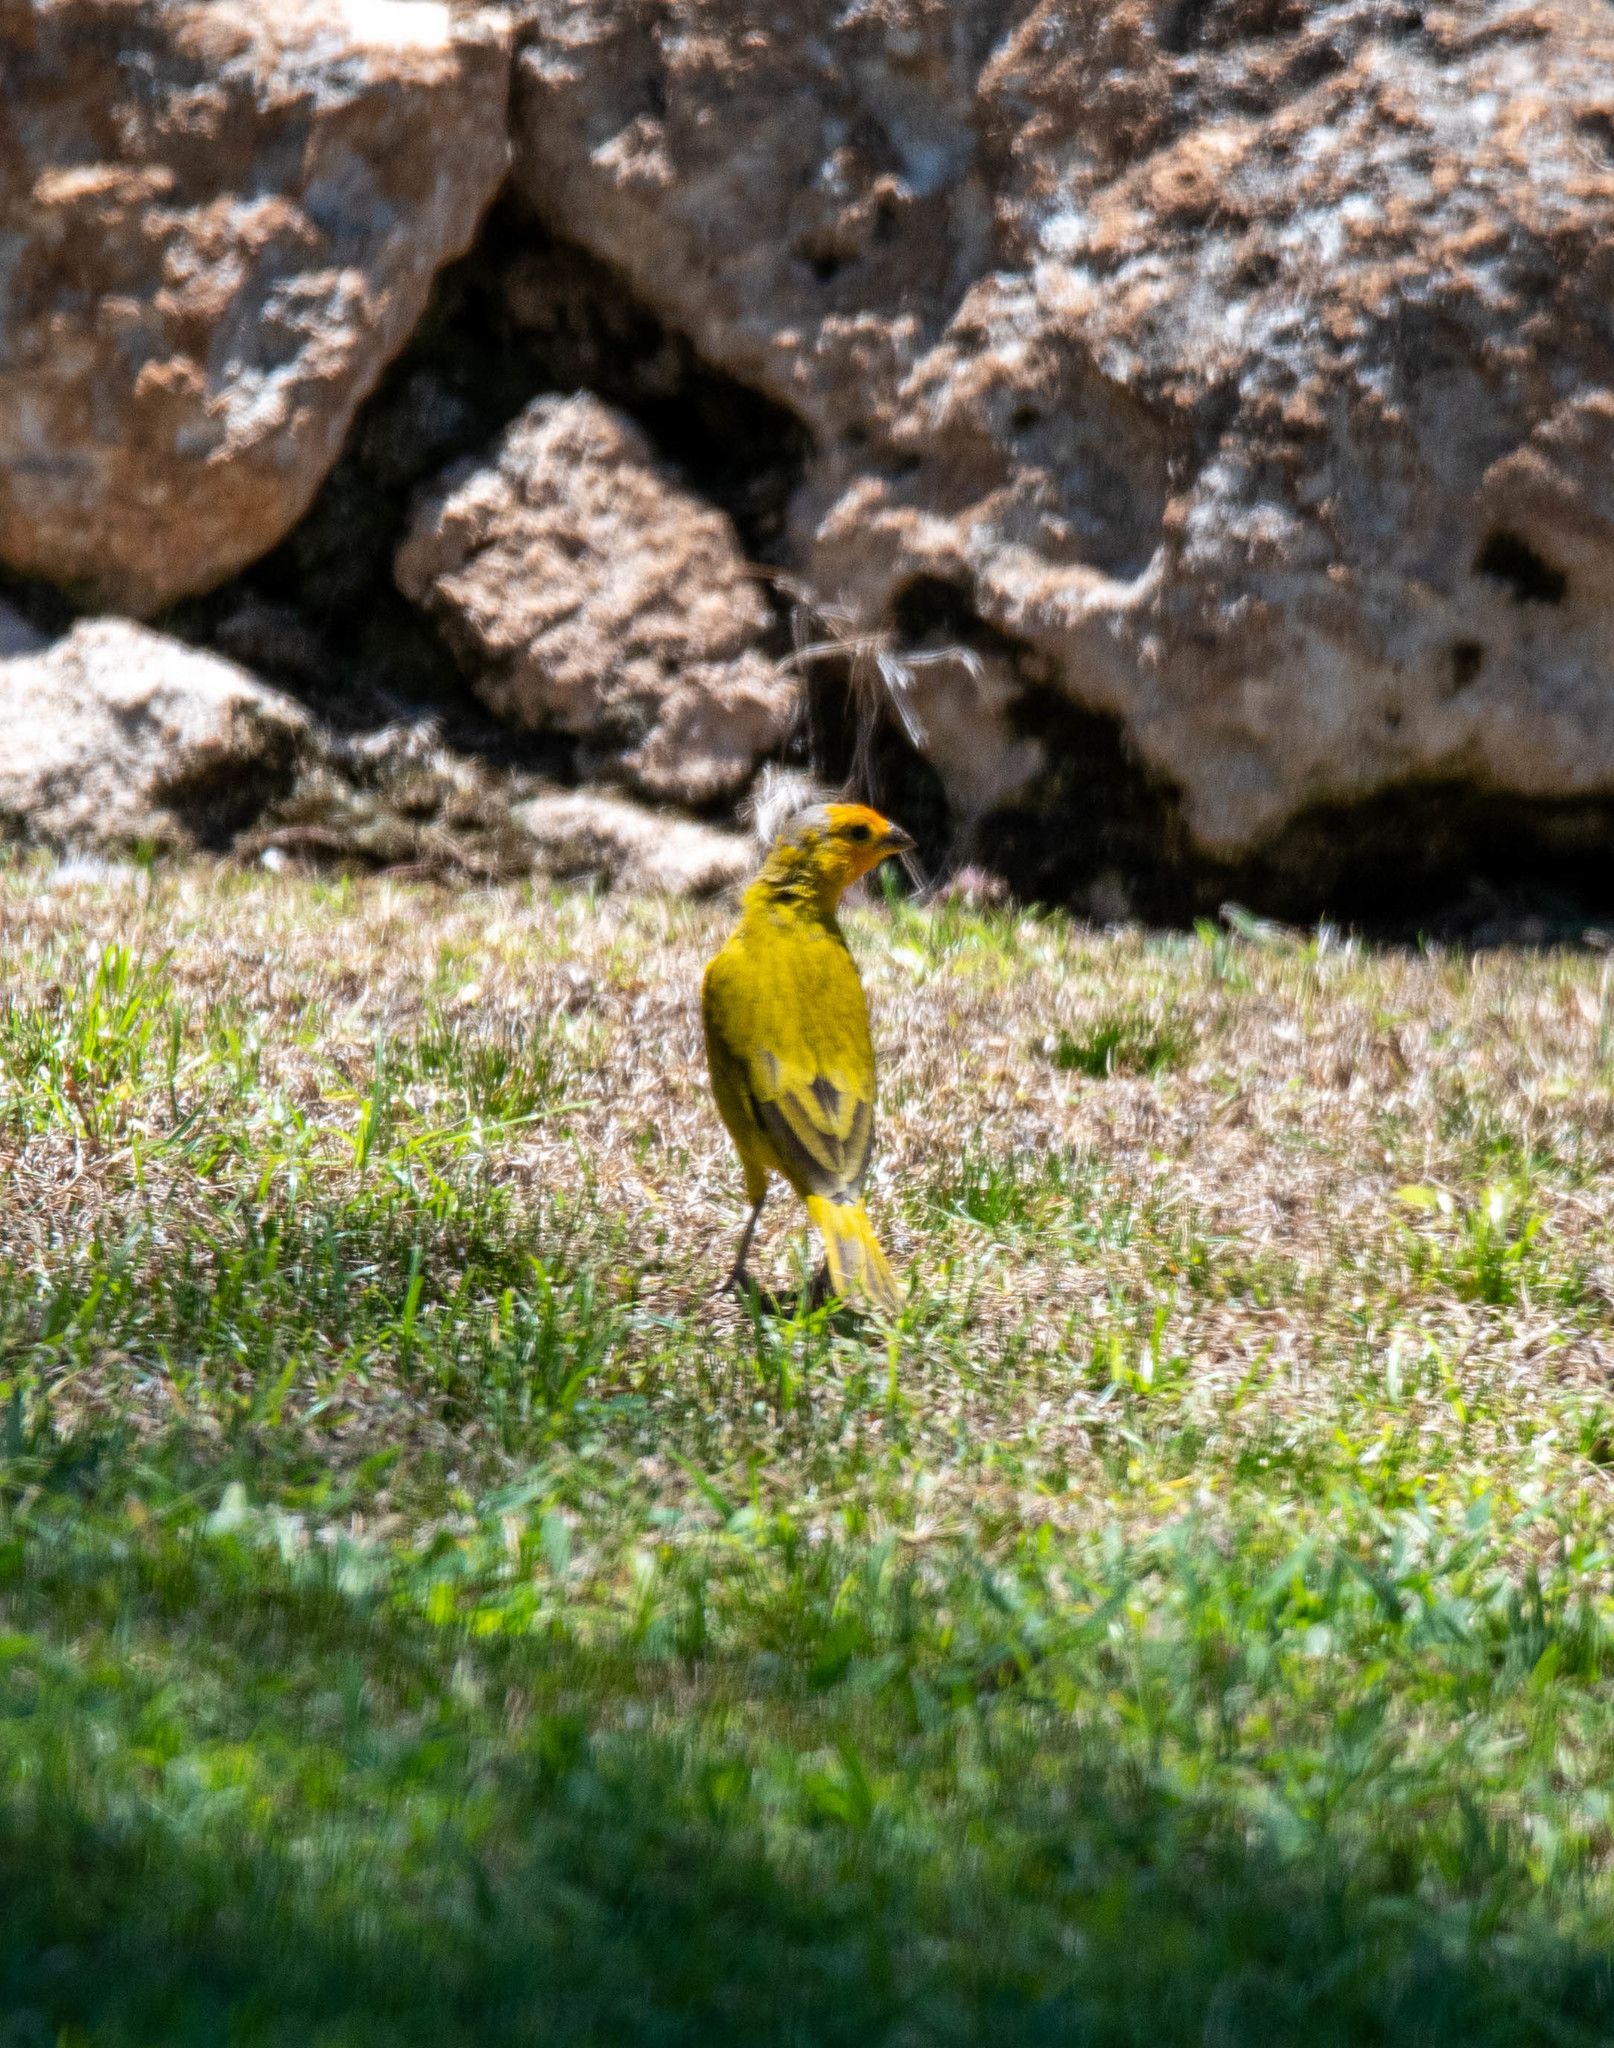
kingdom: Animalia
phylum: Chordata
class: Aves
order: Passeriformes
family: Thraupidae
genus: Sicalis
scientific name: Sicalis flaveola
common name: Saffron finch
